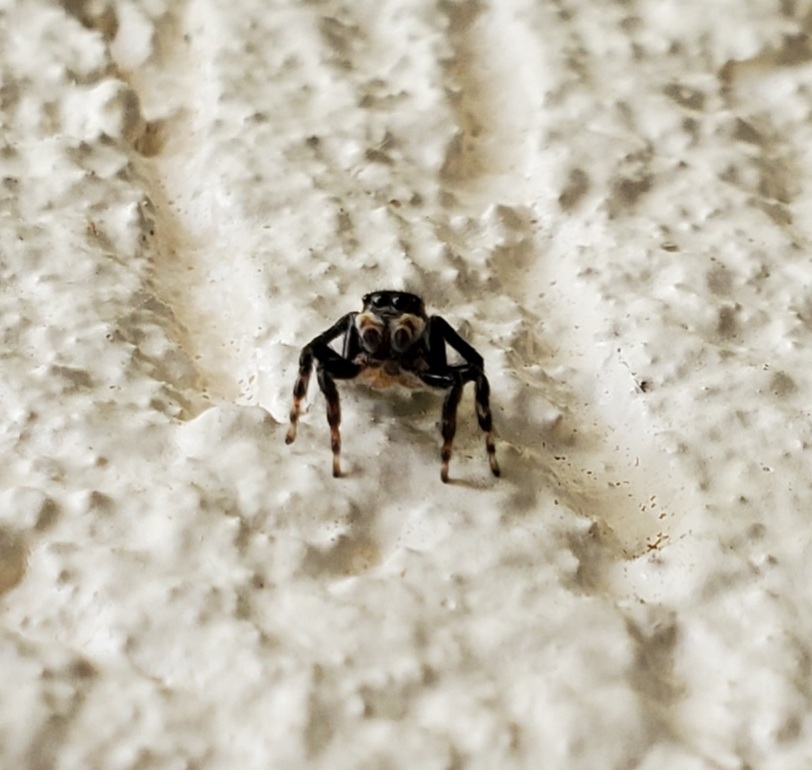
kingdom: Animalia
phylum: Arthropoda
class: Arachnida
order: Araneae
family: Salticidae
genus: Maratus
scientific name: Maratus griseus
